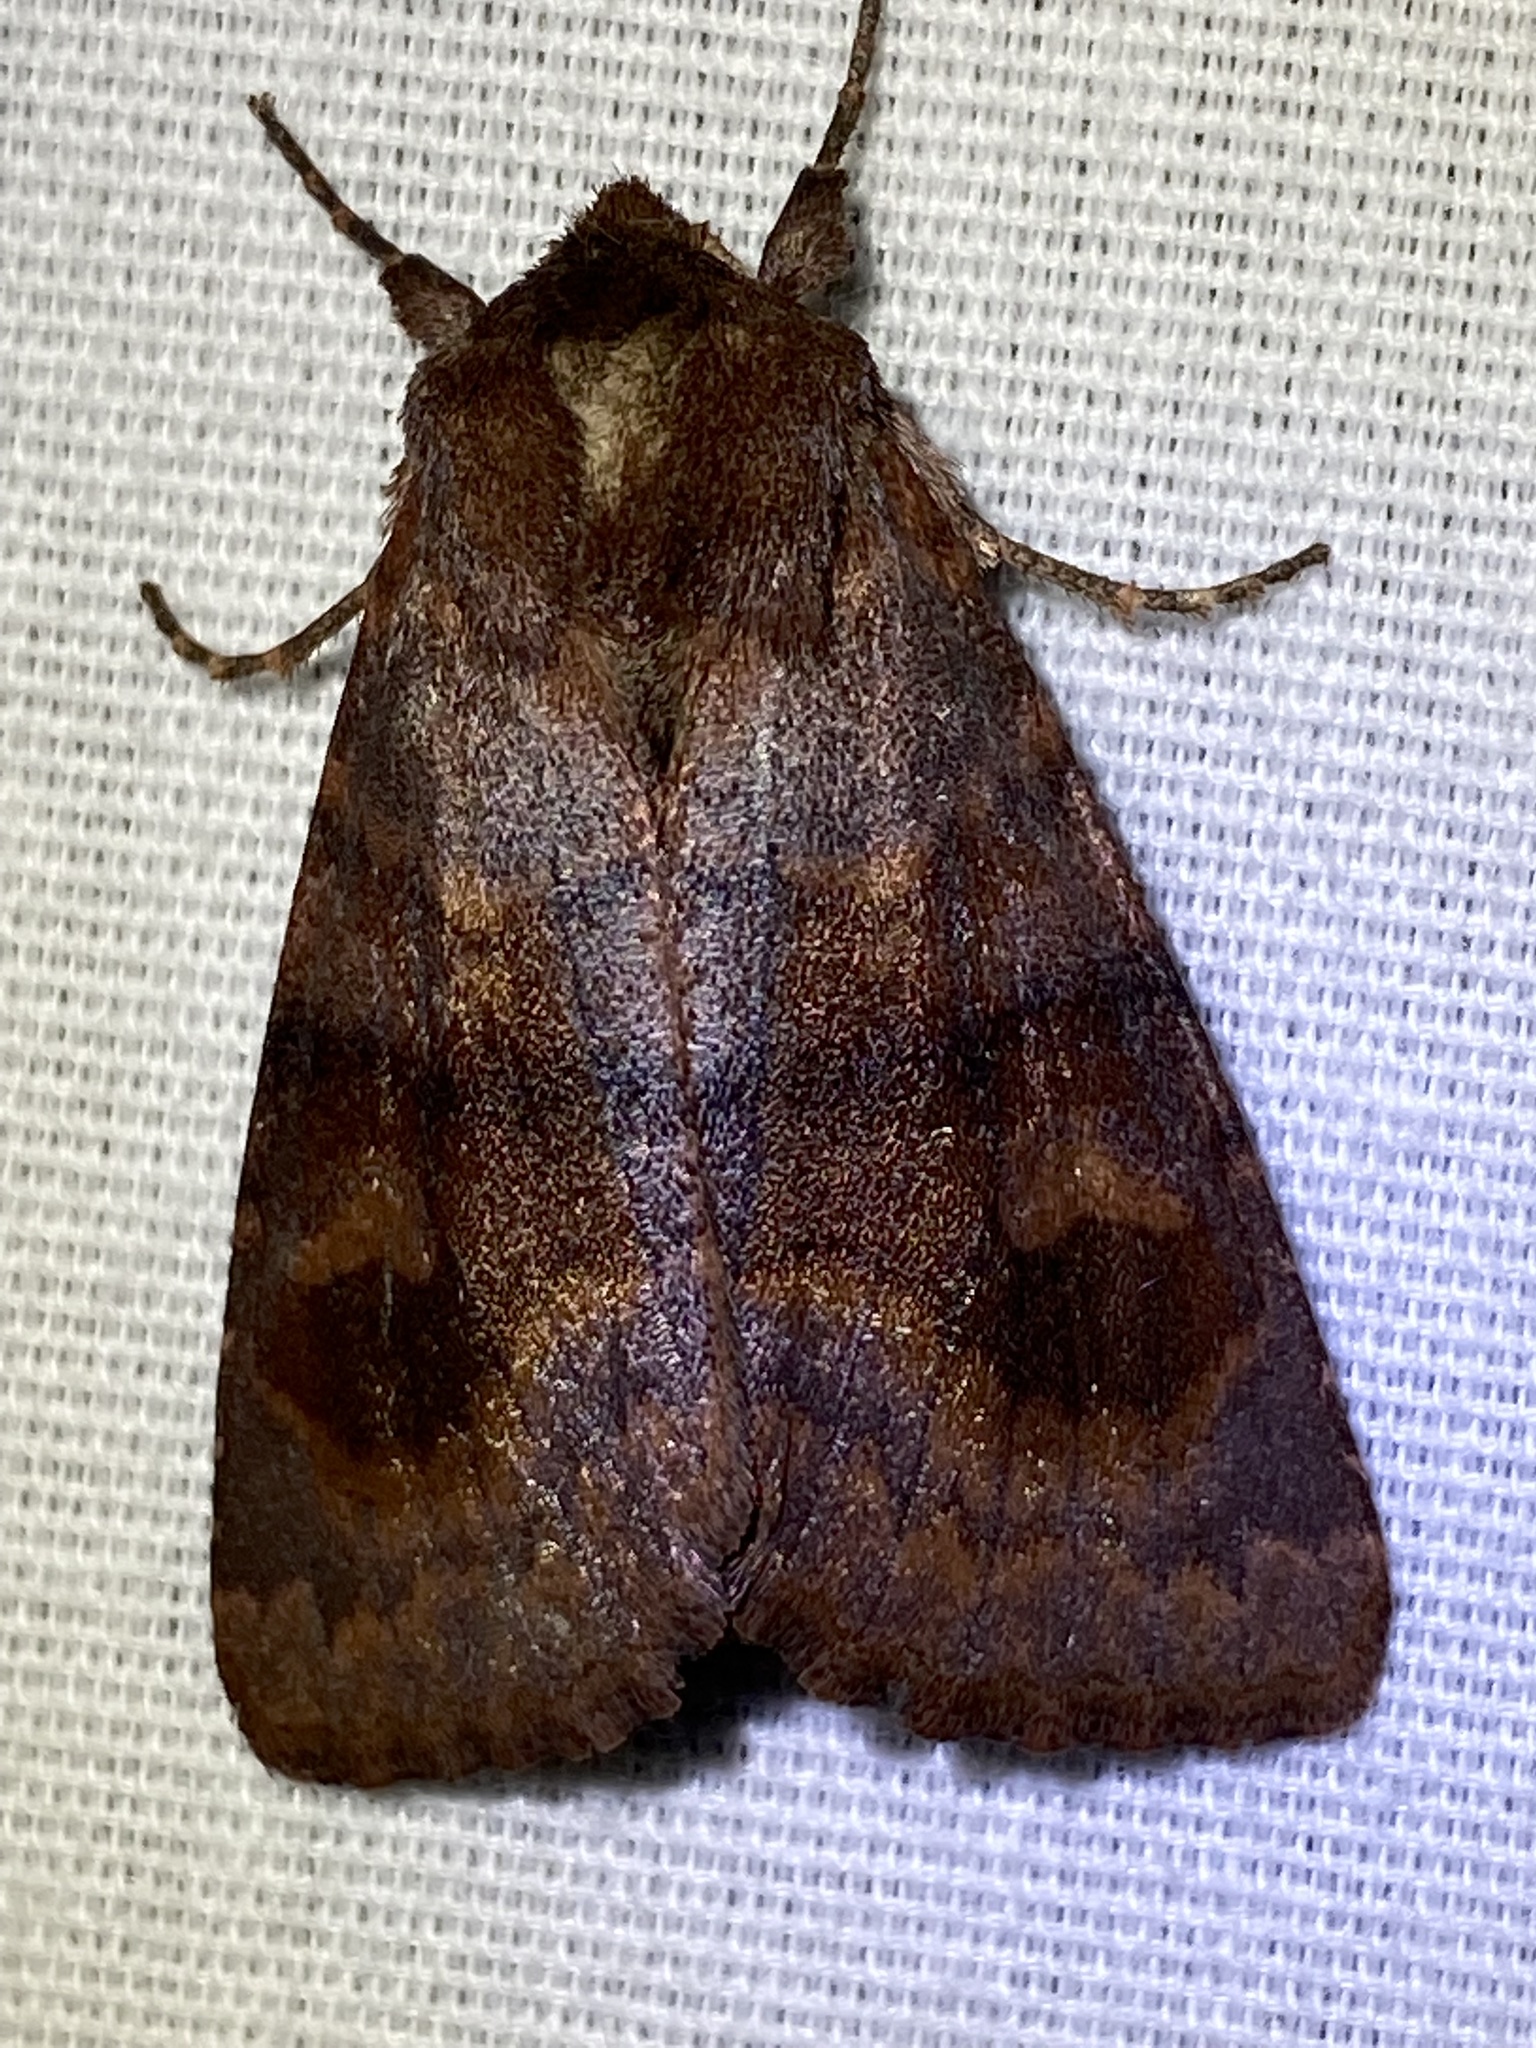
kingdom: Animalia
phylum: Arthropoda
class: Insecta
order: Lepidoptera
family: Noctuidae
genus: Nephelodes
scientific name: Nephelodes minians
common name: Bronzed cutworm
